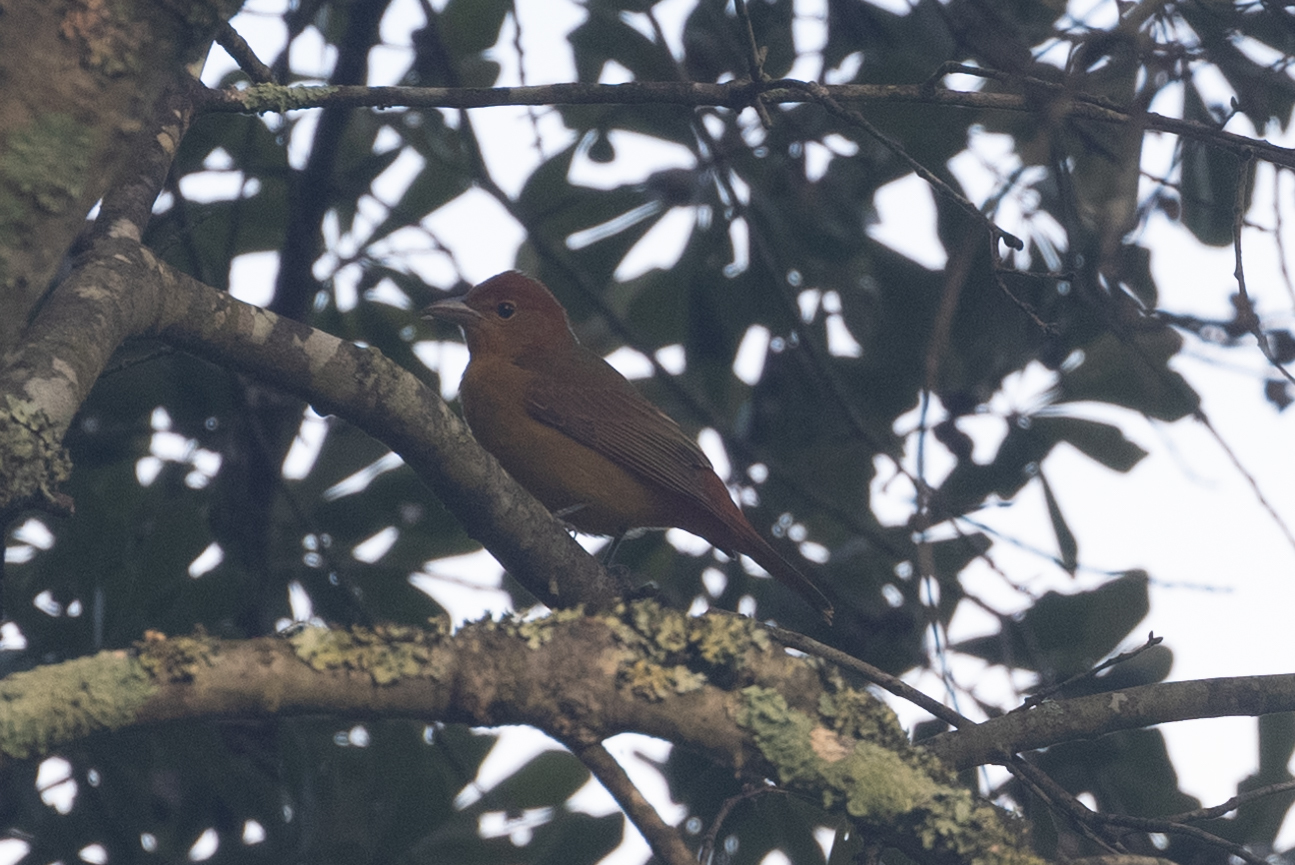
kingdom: Animalia
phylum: Chordata
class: Aves
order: Passeriformes
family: Cardinalidae
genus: Piranga
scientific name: Piranga rubra
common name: Summer tanager
